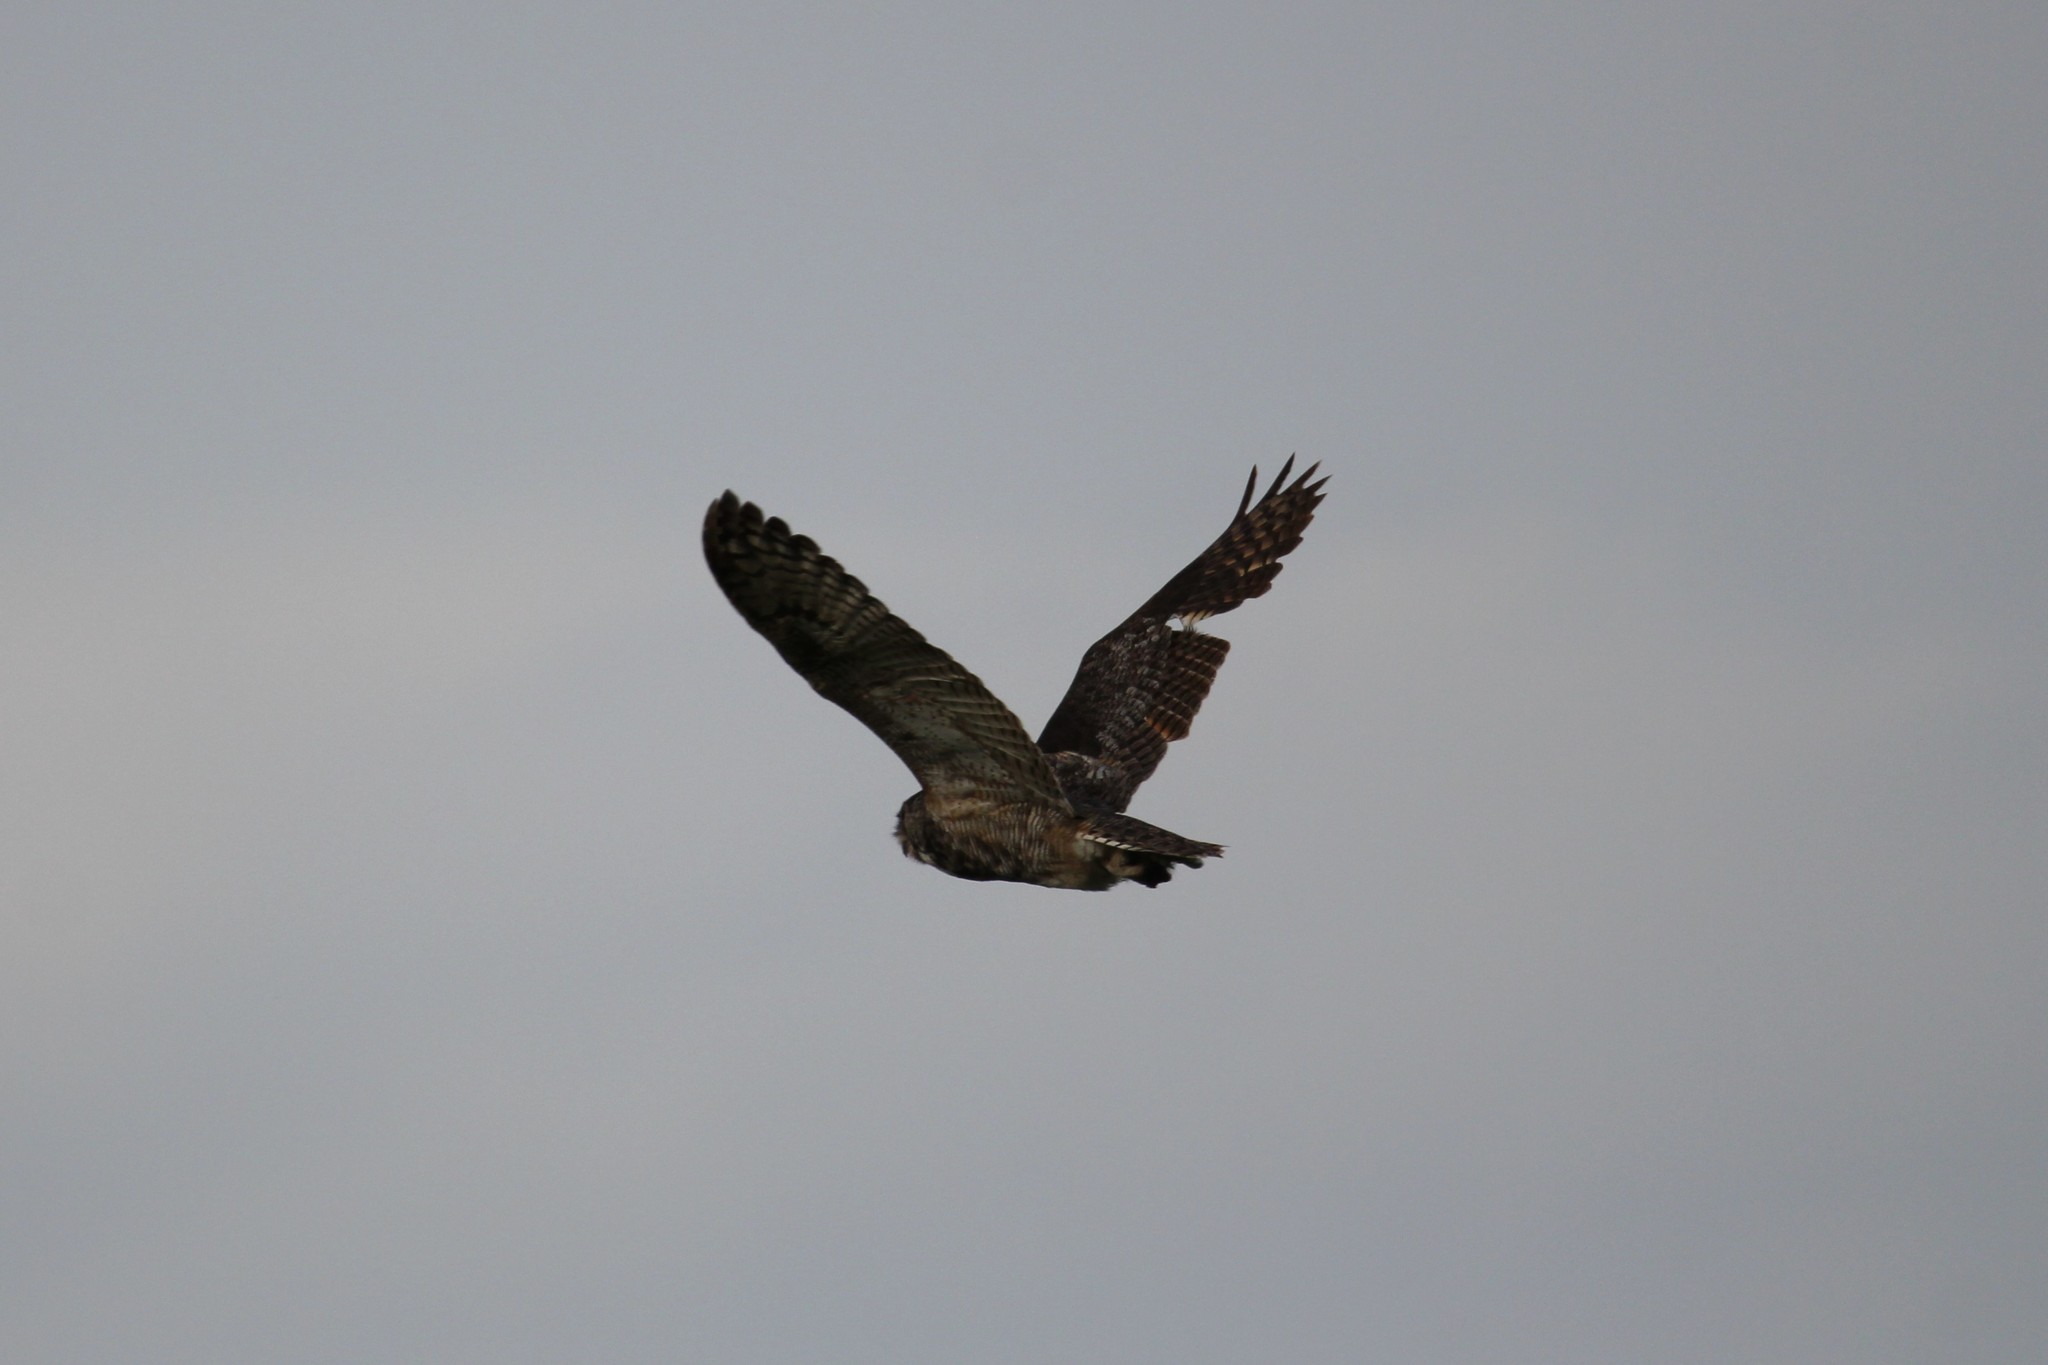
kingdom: Animalia
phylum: Chordata
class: Aves
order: Strigiformes
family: Strigidae
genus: Bubo
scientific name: Bubo virginianus
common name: Great horned owl
